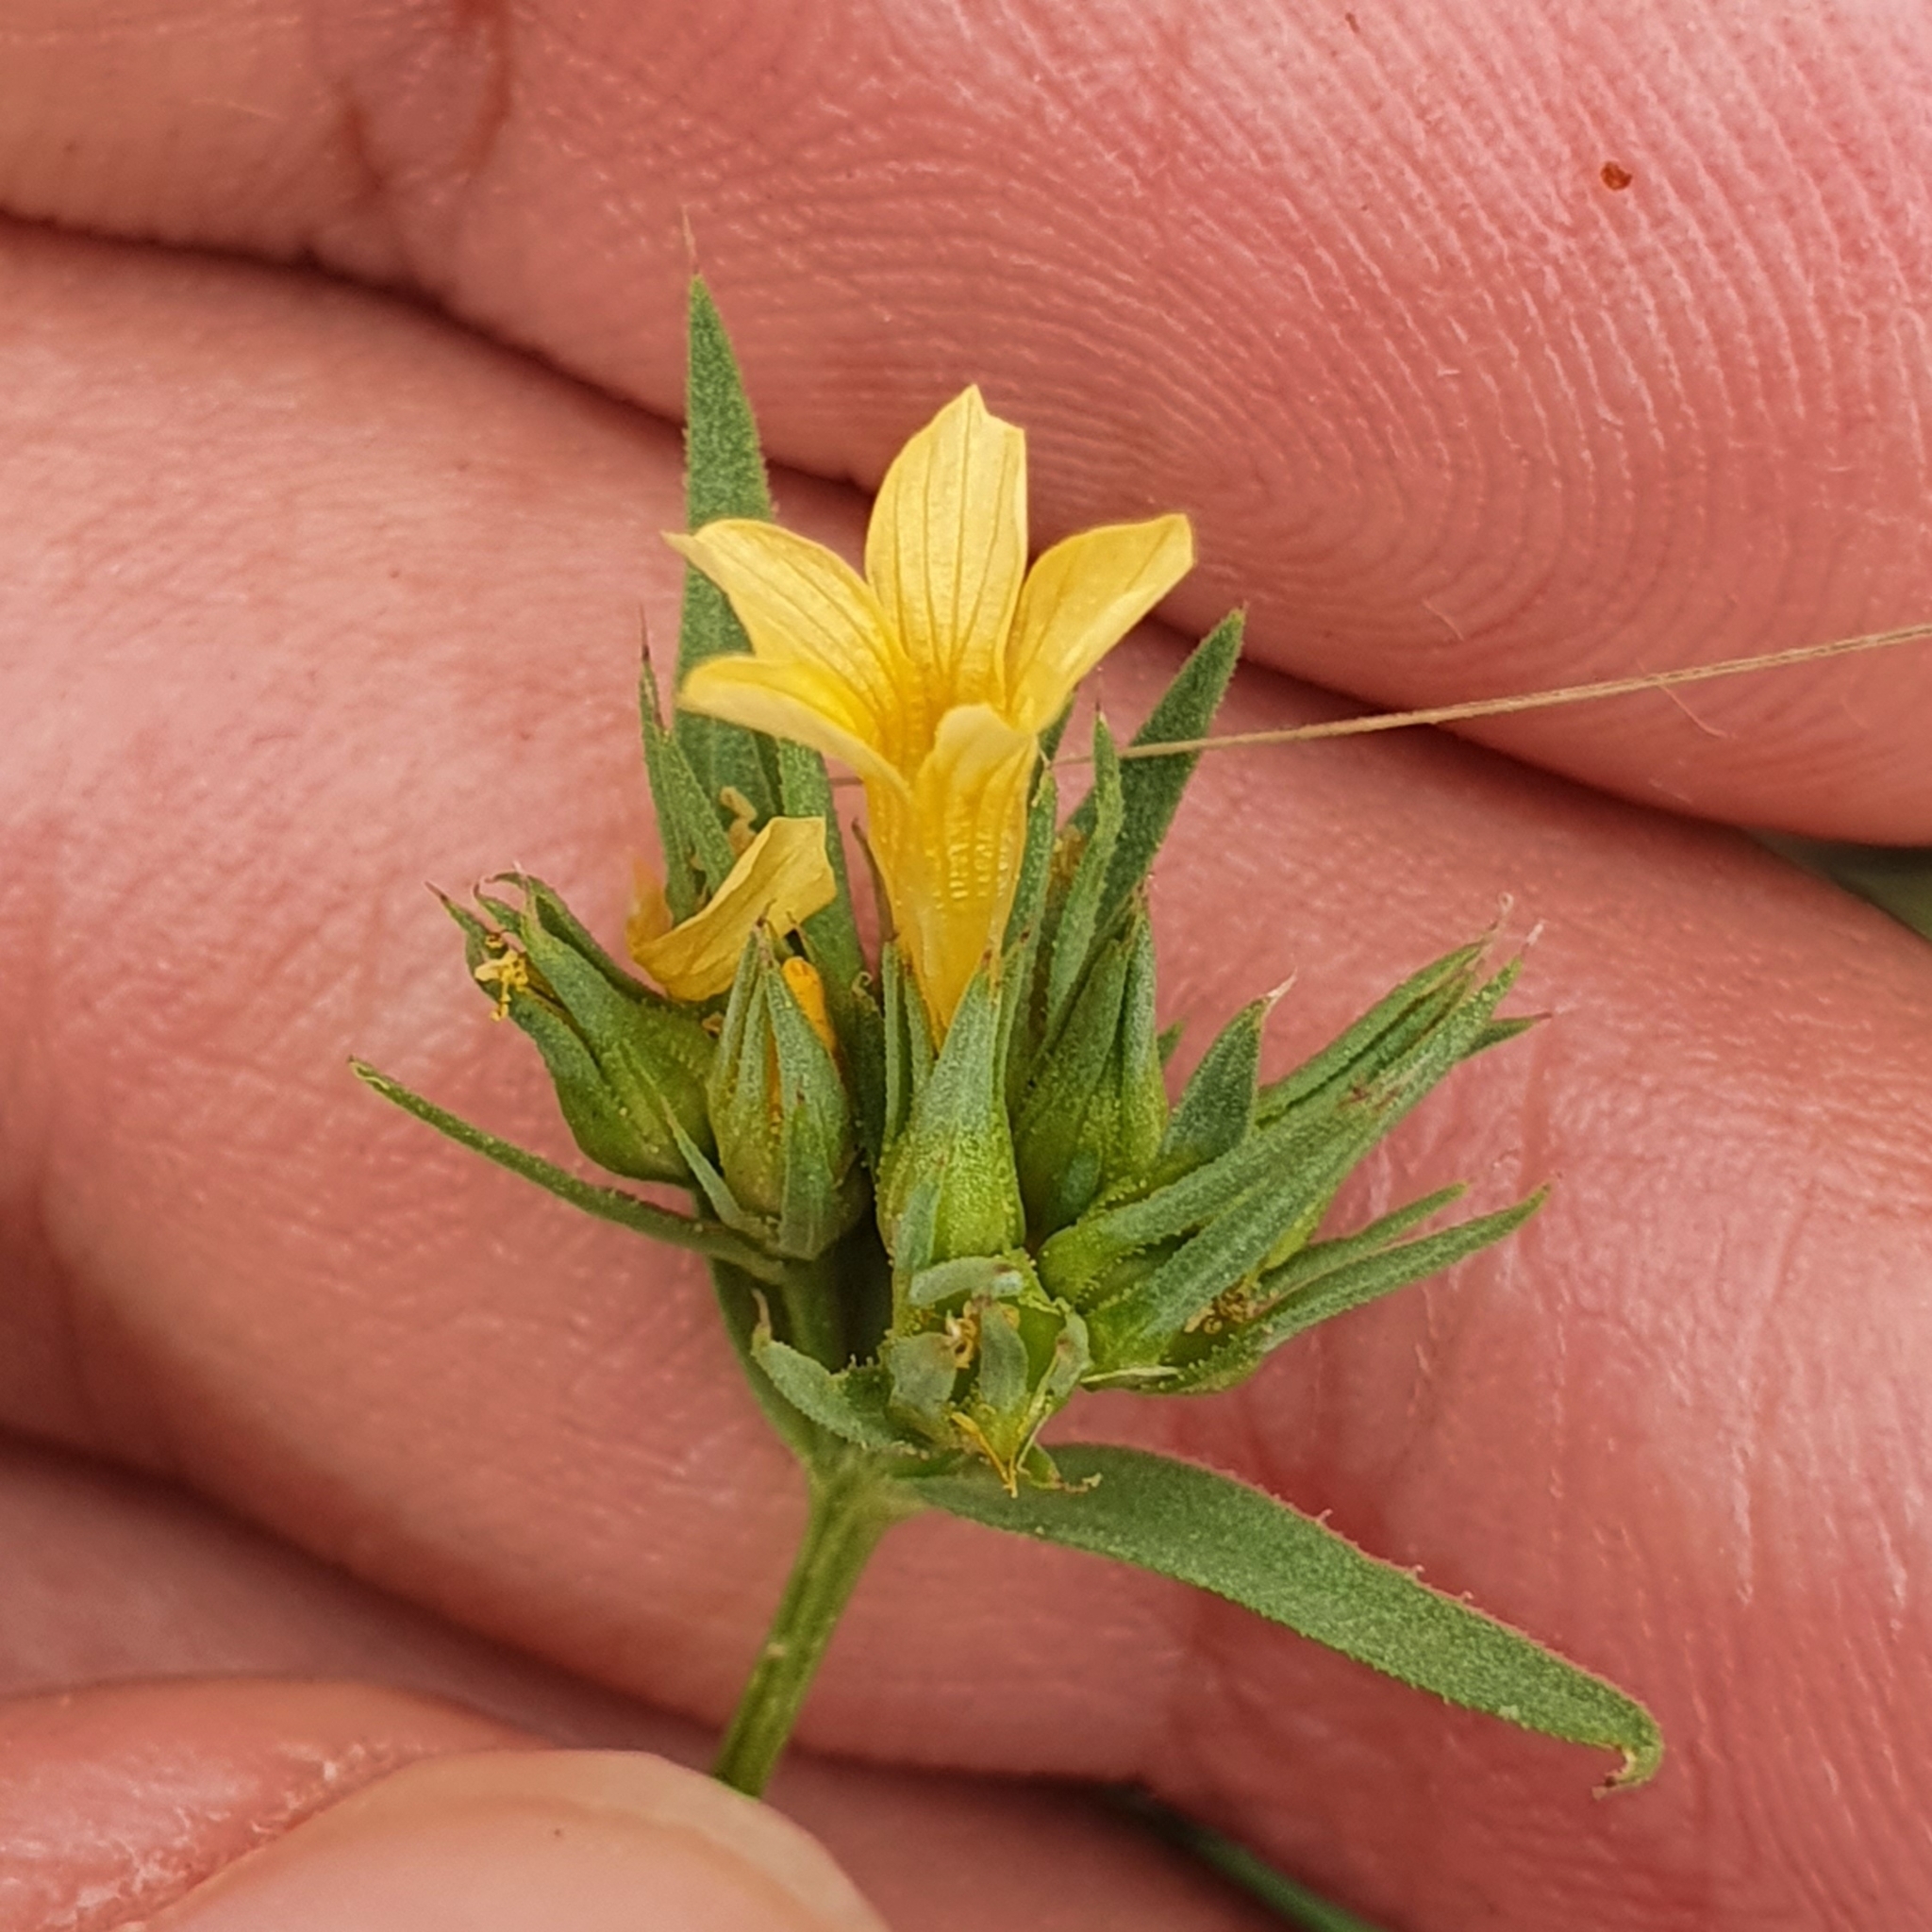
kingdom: Plantae
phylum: Tracheophyta
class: Magnoliopsida
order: Malpighiales
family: Linaceae
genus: Linum
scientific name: Linum strictum
